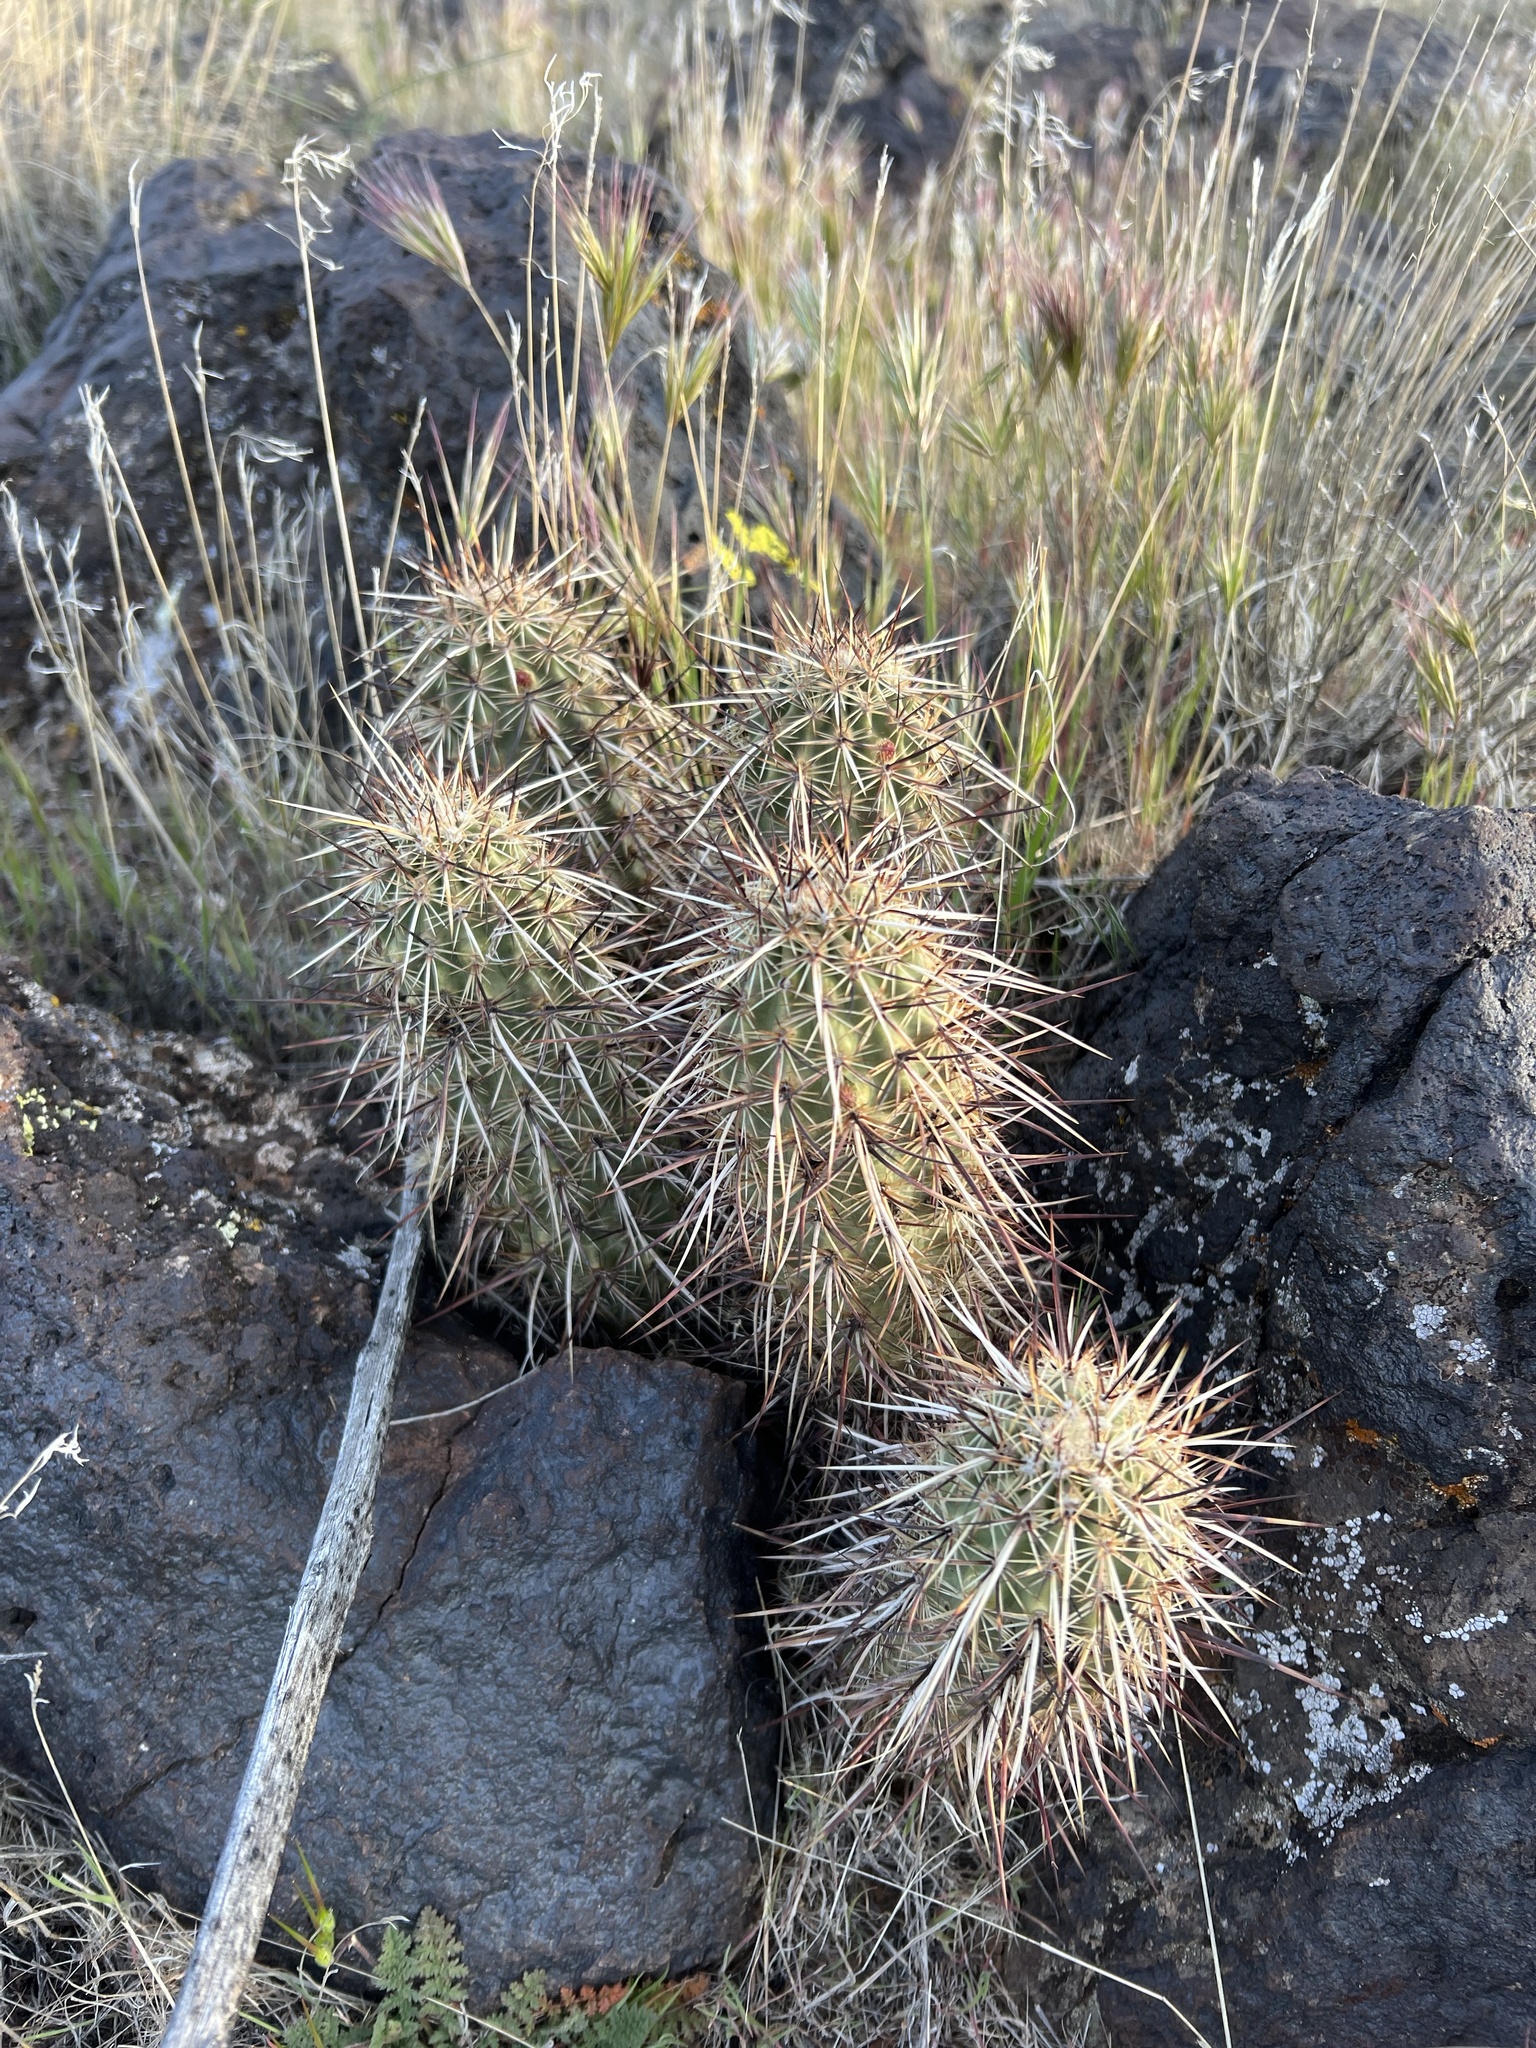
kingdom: Plantae
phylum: Tracheophyta
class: Magnoliopsida
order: Caryophyllales
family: Cactaceae
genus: Echinocereus
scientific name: Echinocereus relictus
